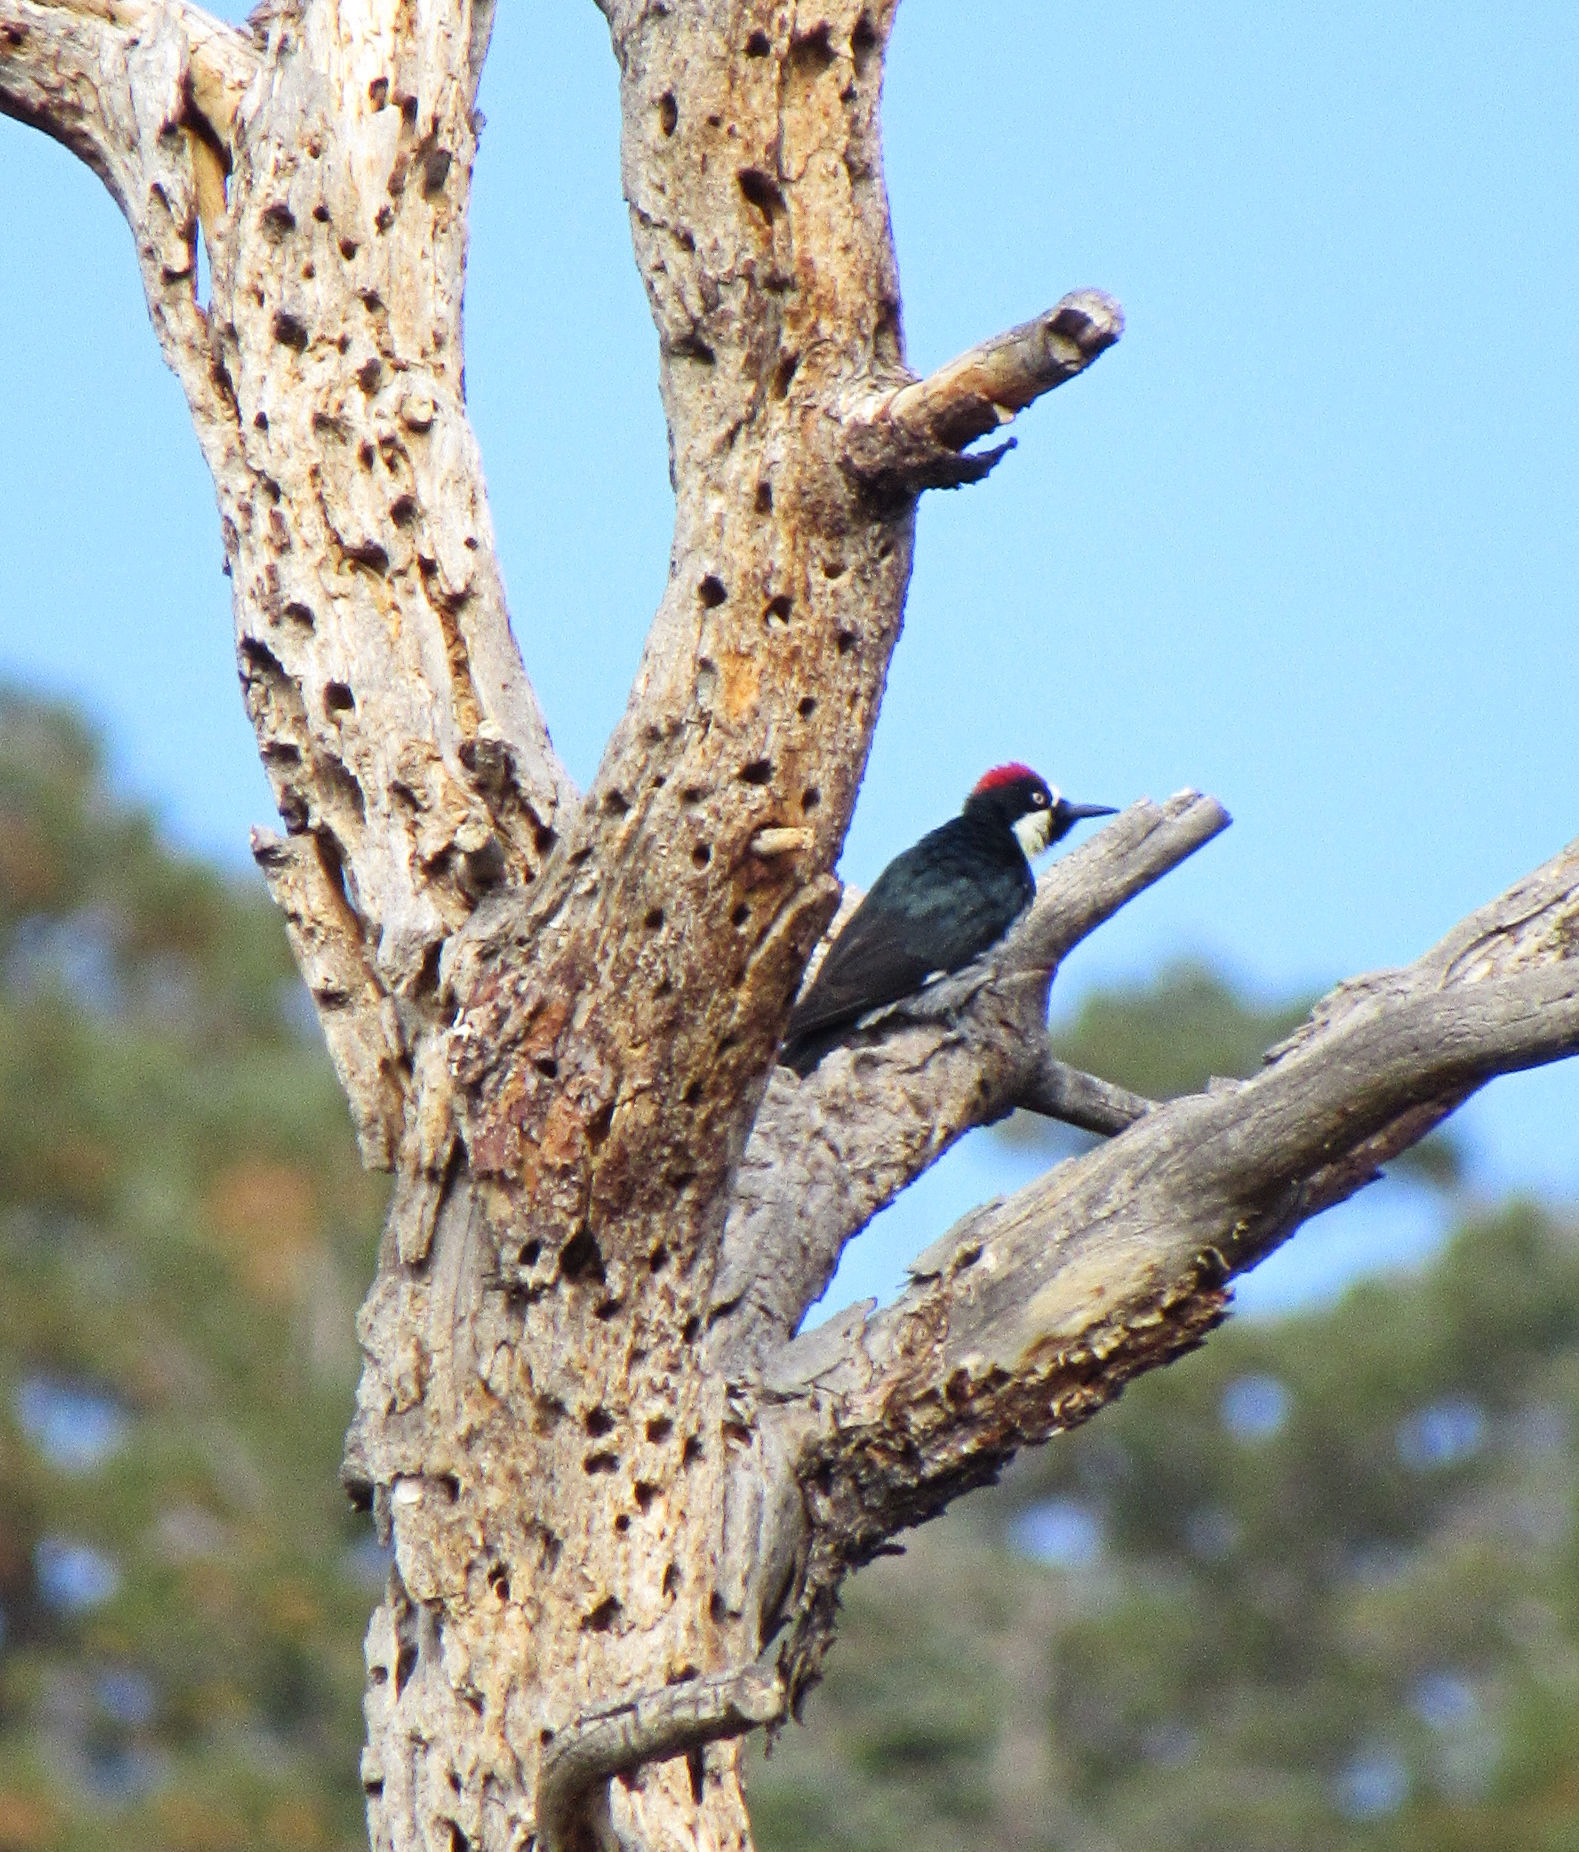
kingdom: Animalia
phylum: Chordata
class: Aves
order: Piciformes
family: Picidae
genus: Melanerpes
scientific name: Melanerpes formicivorus
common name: Acorn woodpecker
